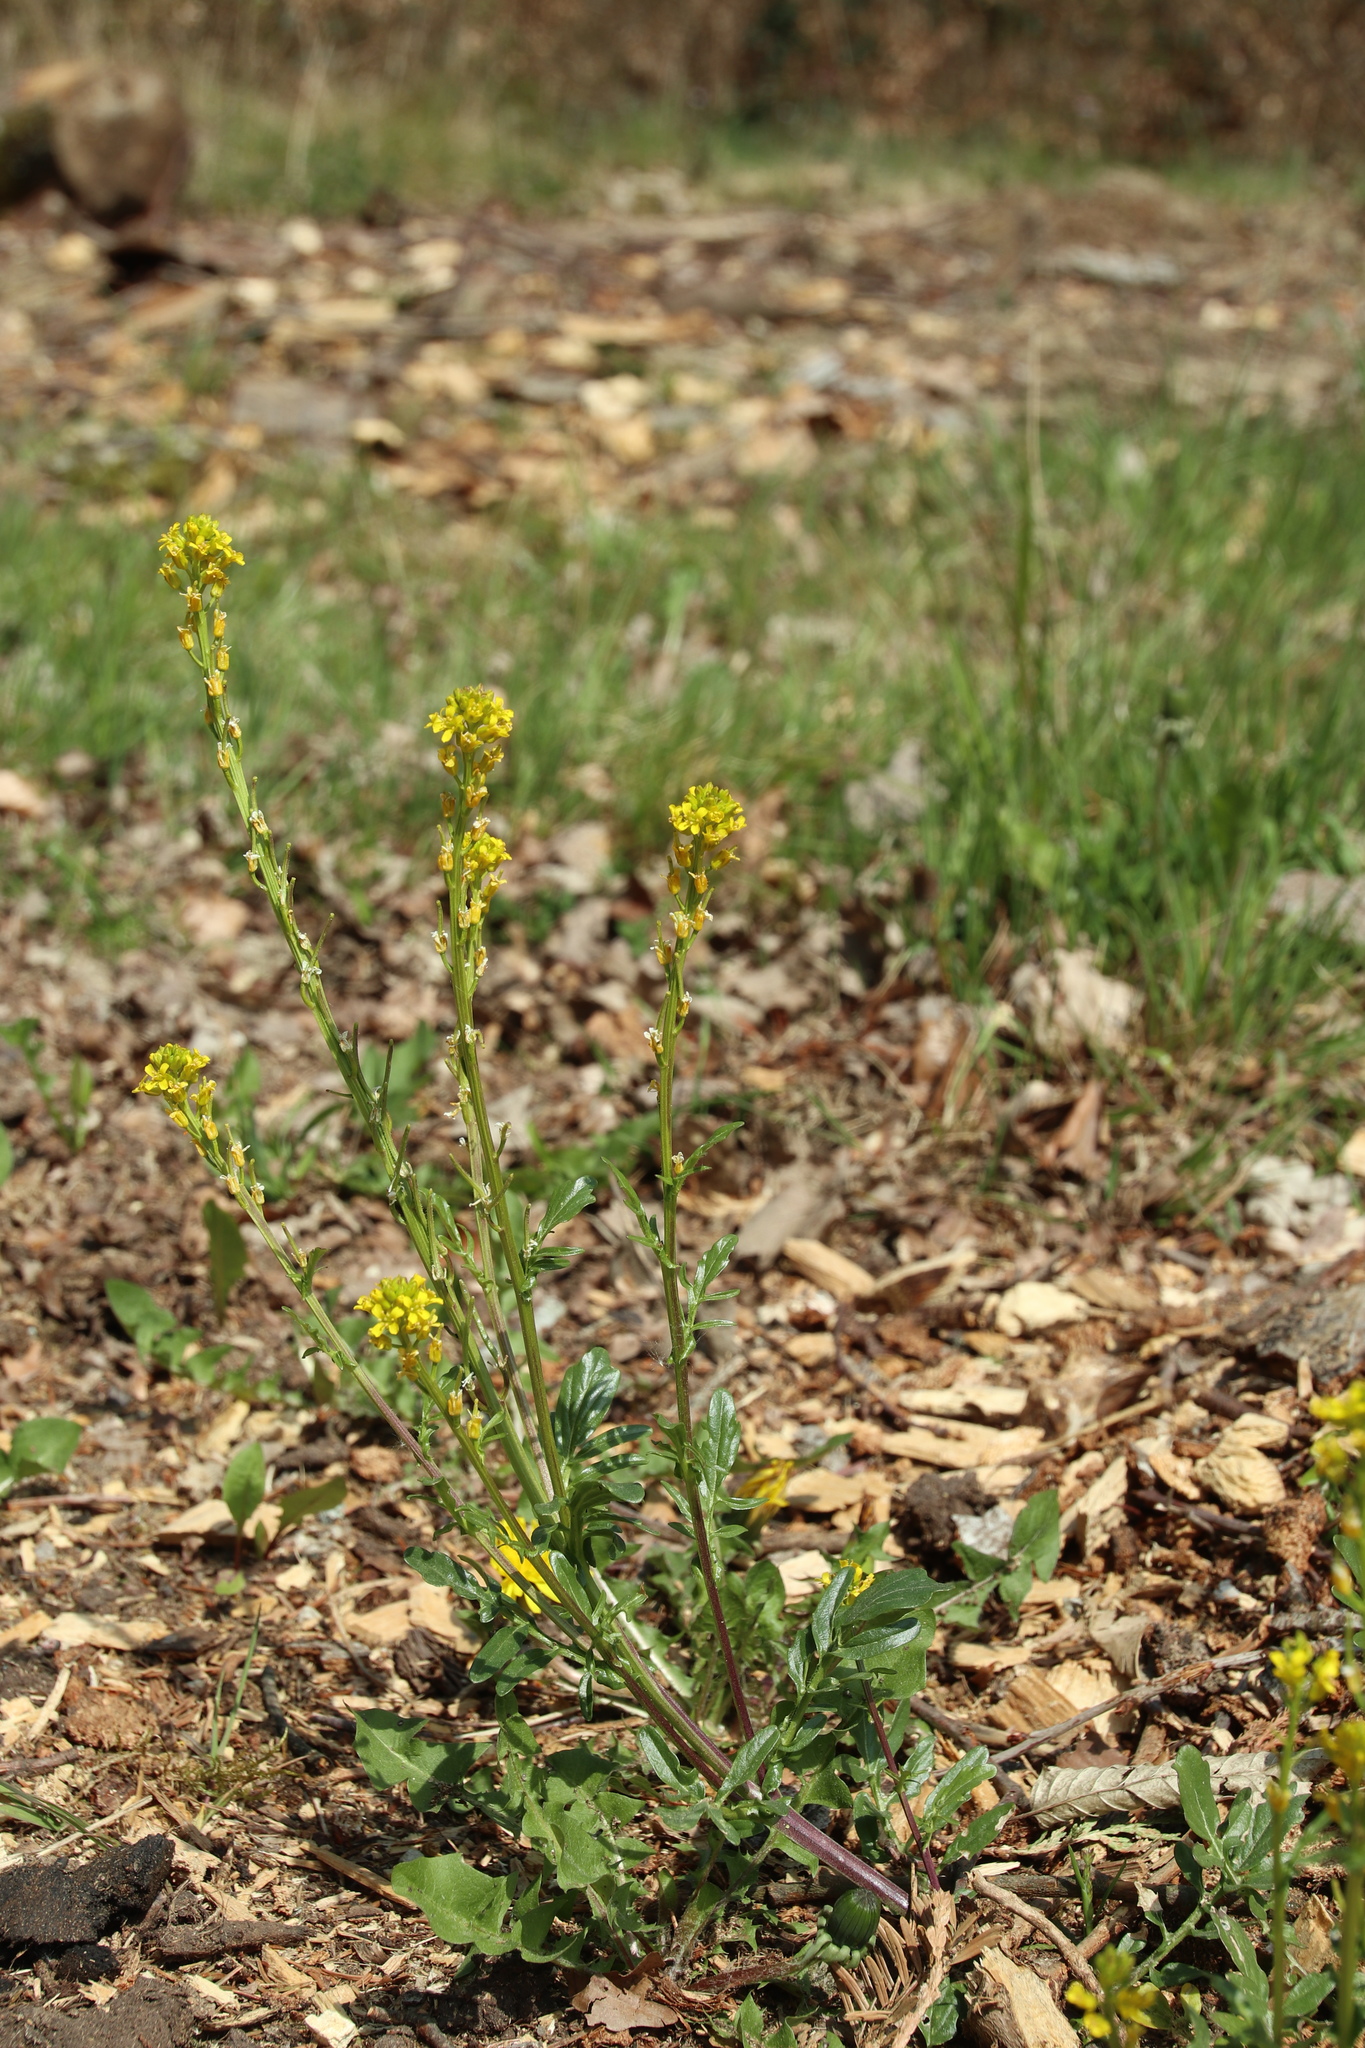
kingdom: Plantae
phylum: Tracheophyta
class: Magnoliopsida
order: Brassicales
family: Brassicaceae
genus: Barbarea
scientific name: Barbarea vulgaris
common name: Cressy-greens
